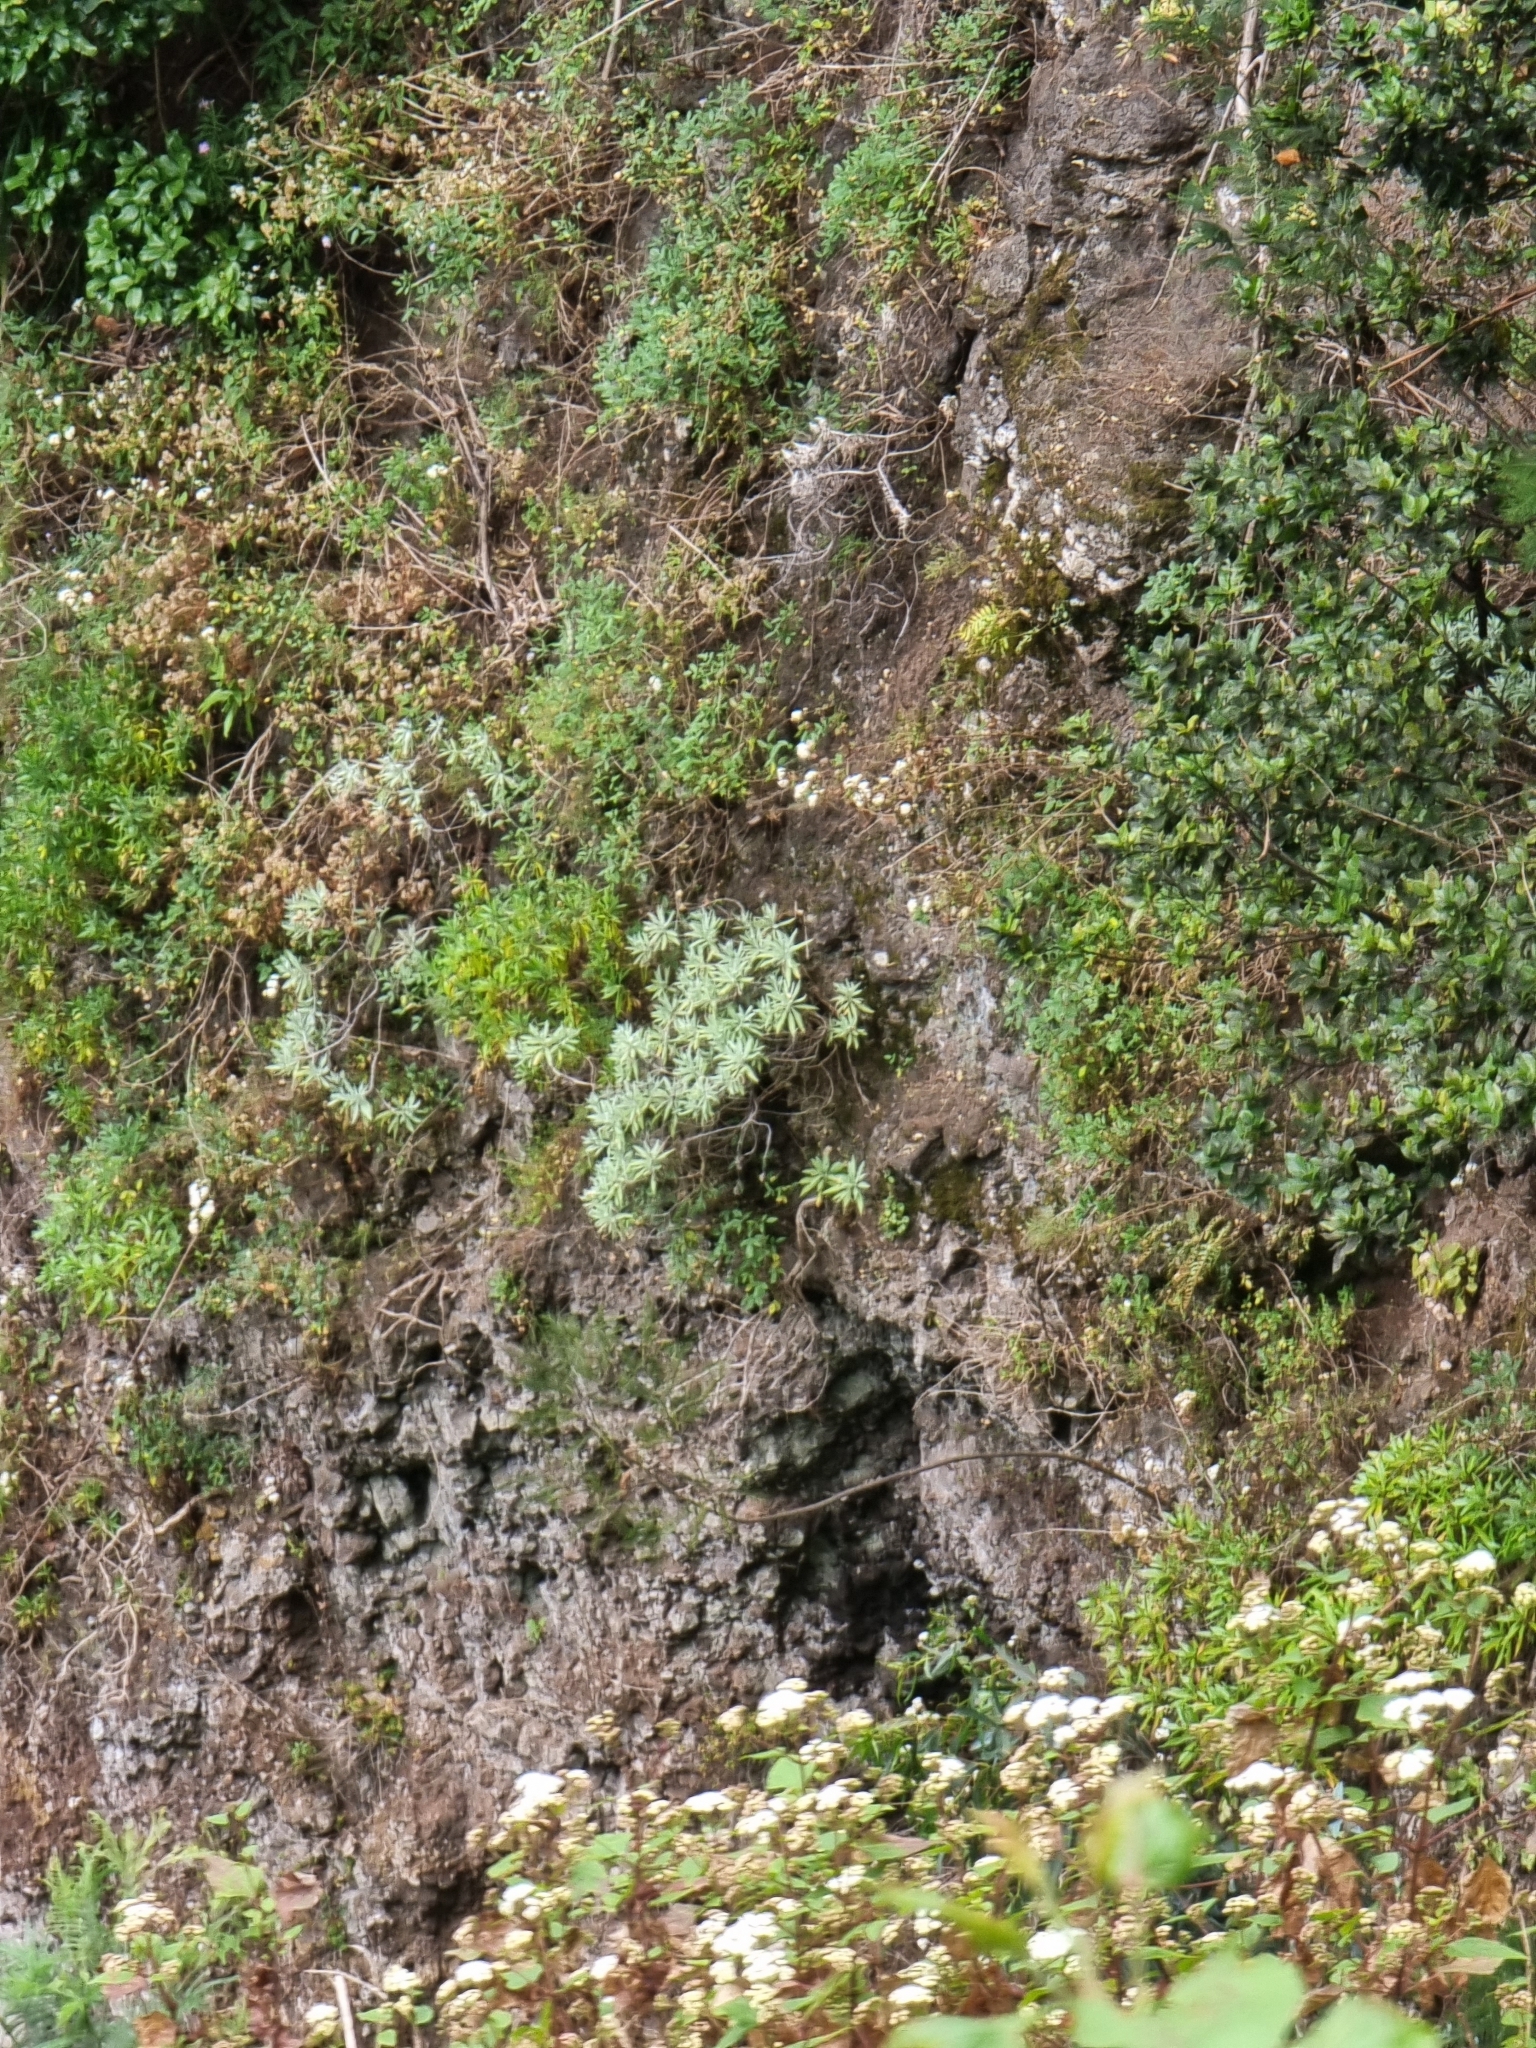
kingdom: Plantae
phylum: Tracheophyta
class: Magnoliopsida
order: Asterales
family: Asteraceae
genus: Helichrysum
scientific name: Helichrysum melaleucum
